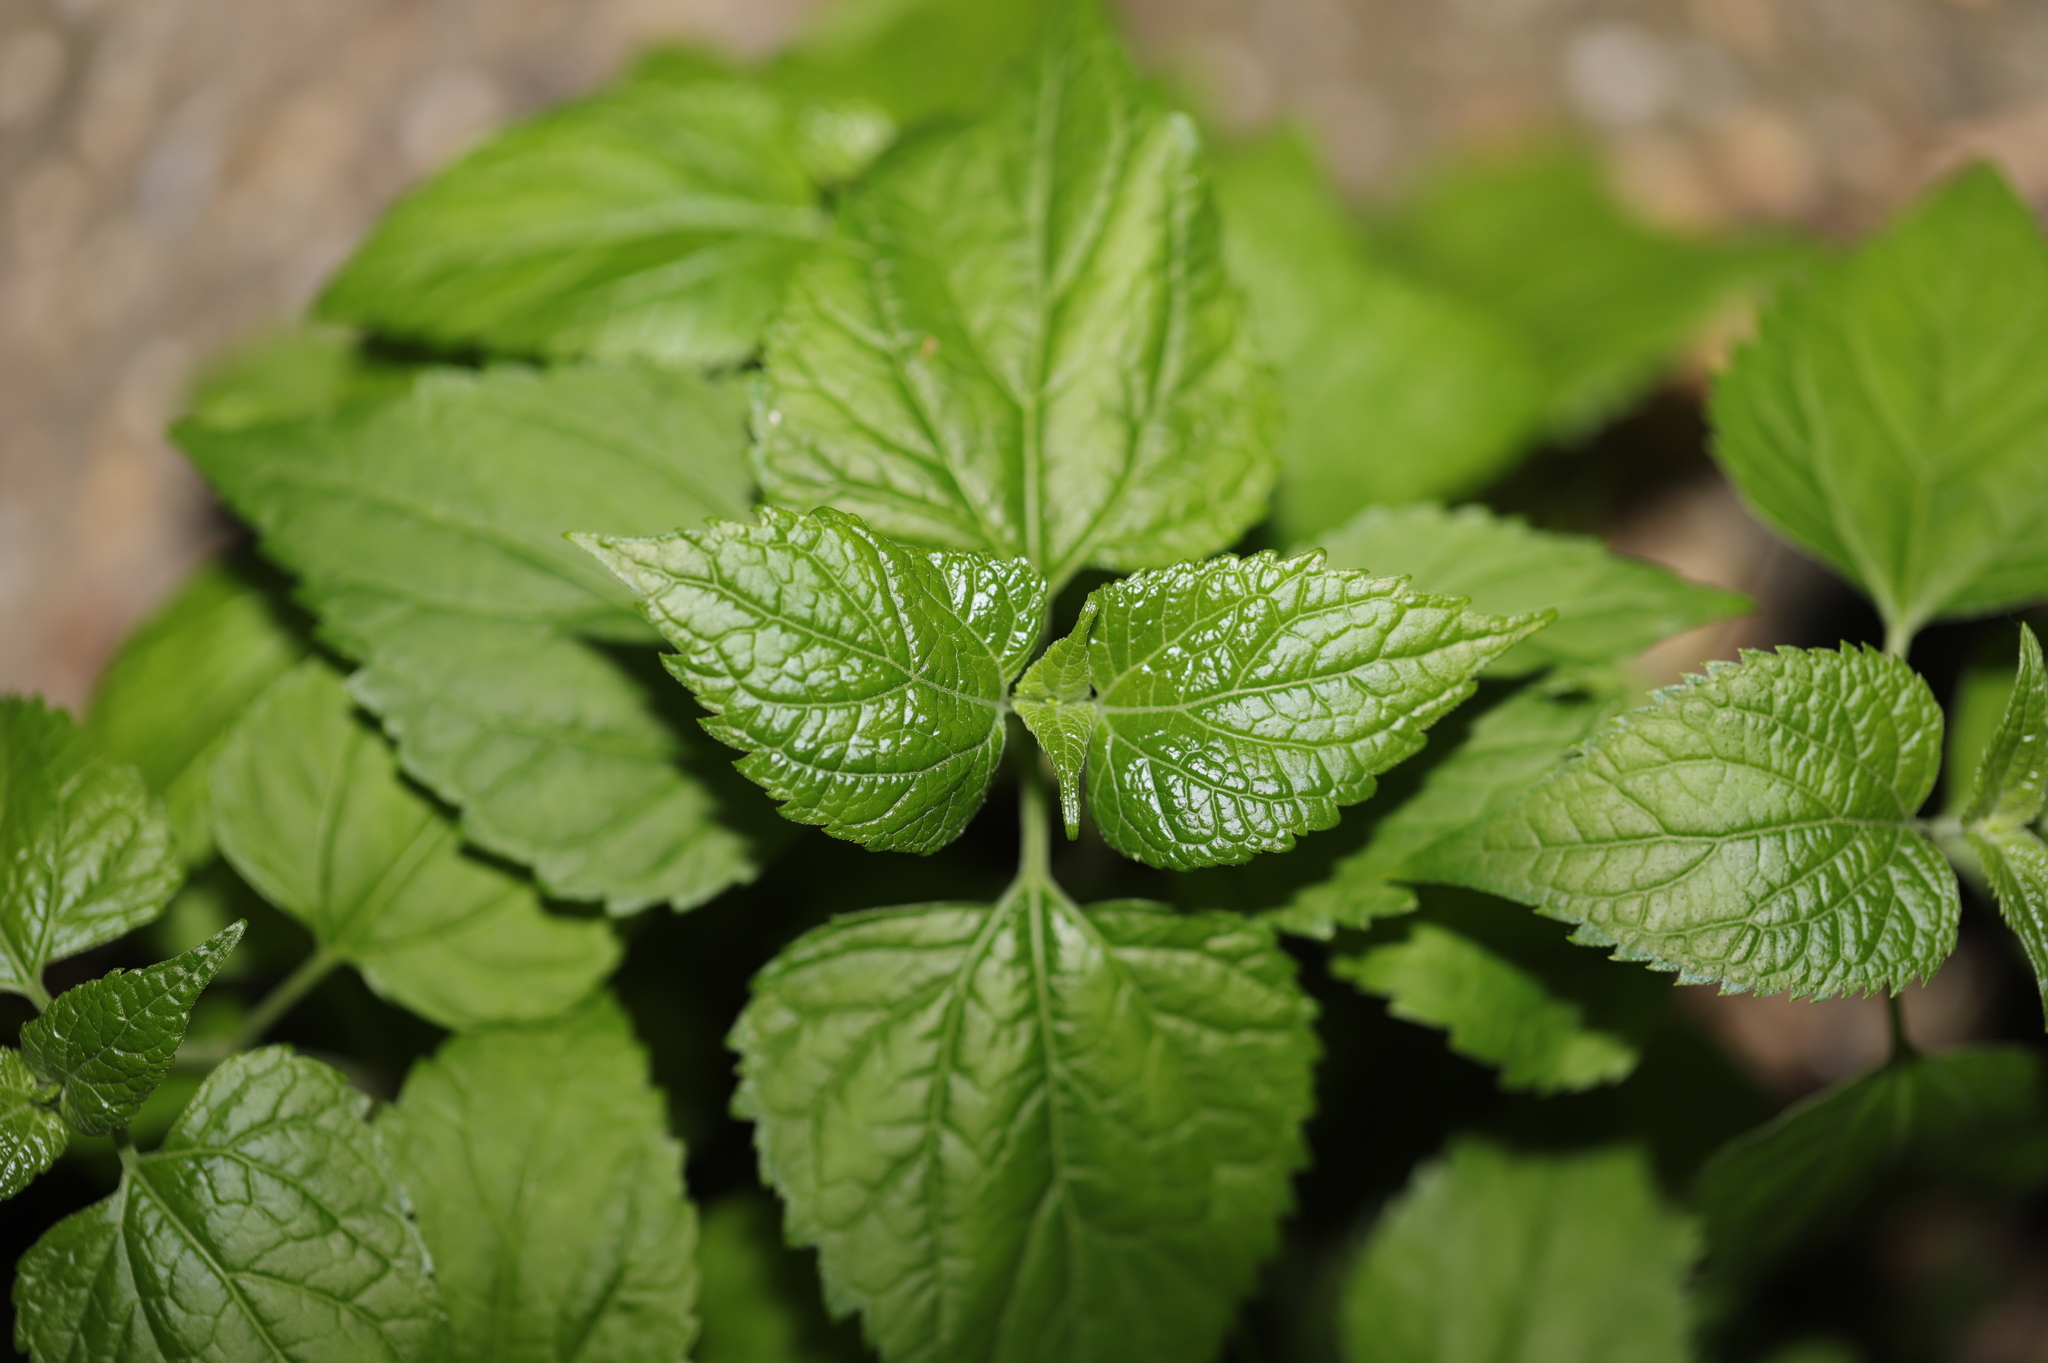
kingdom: Plantae
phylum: Tracheophyta
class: Magnoliopsida
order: Asterales
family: Asteraceae
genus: Ageratina
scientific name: Ageratina altissima
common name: White snakeroot
